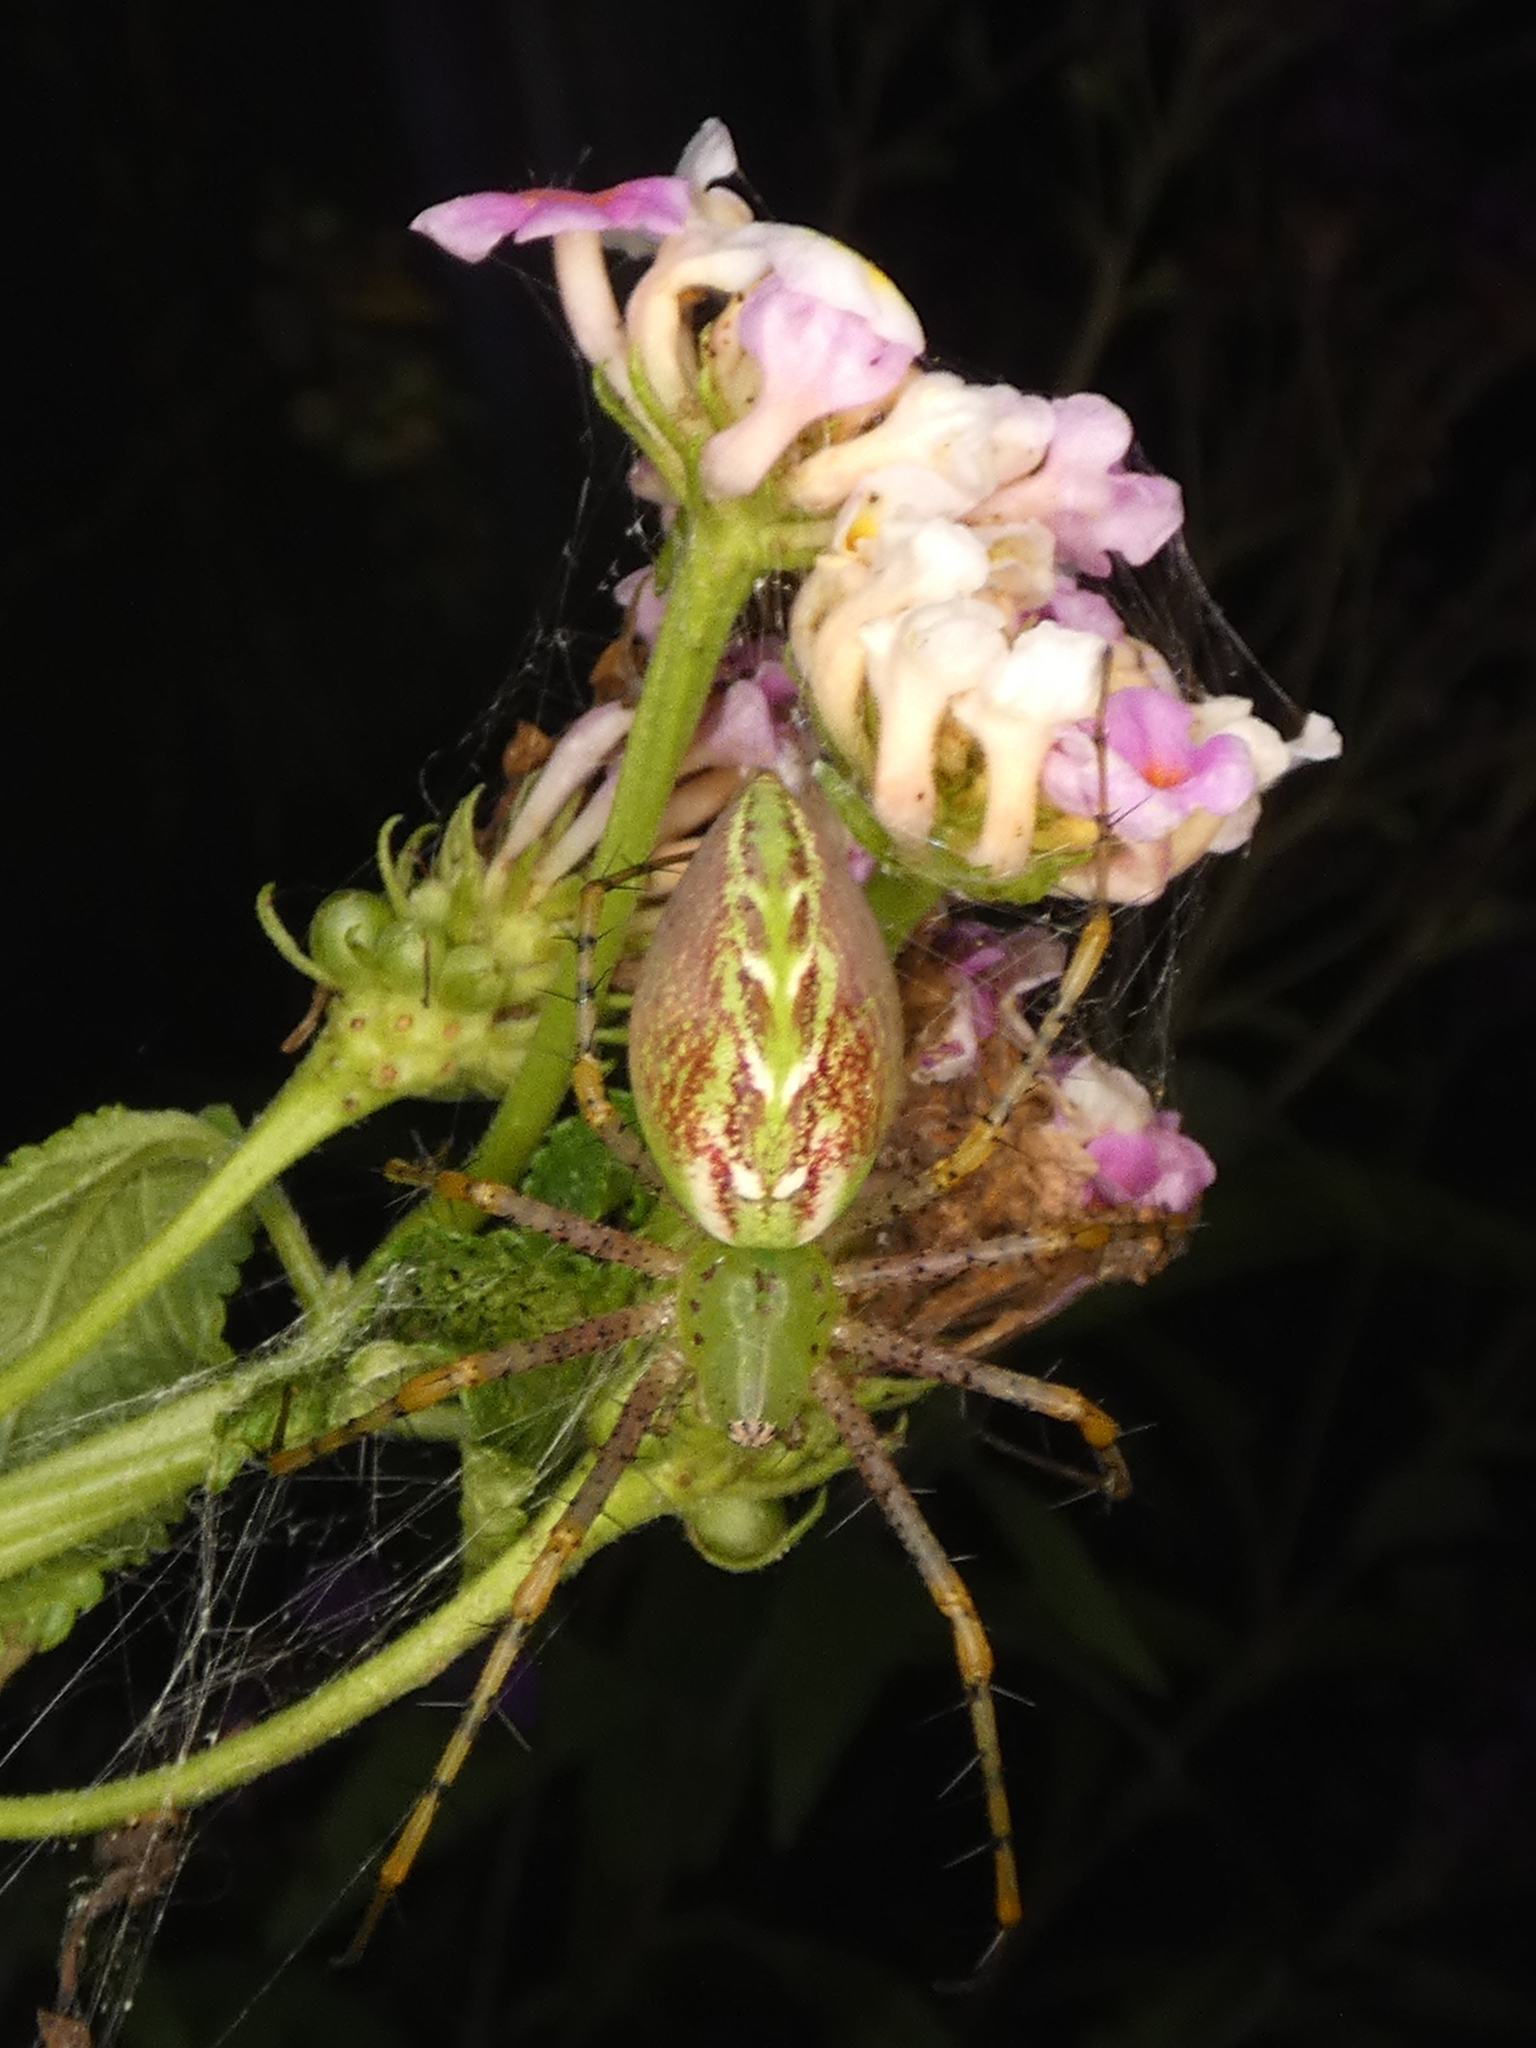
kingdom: Animalia
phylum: Arthropoda
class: Arachnida
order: Araneae
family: Oxyopidae
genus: Peucetia
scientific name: Peucetia viridans
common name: Lynx spiders
